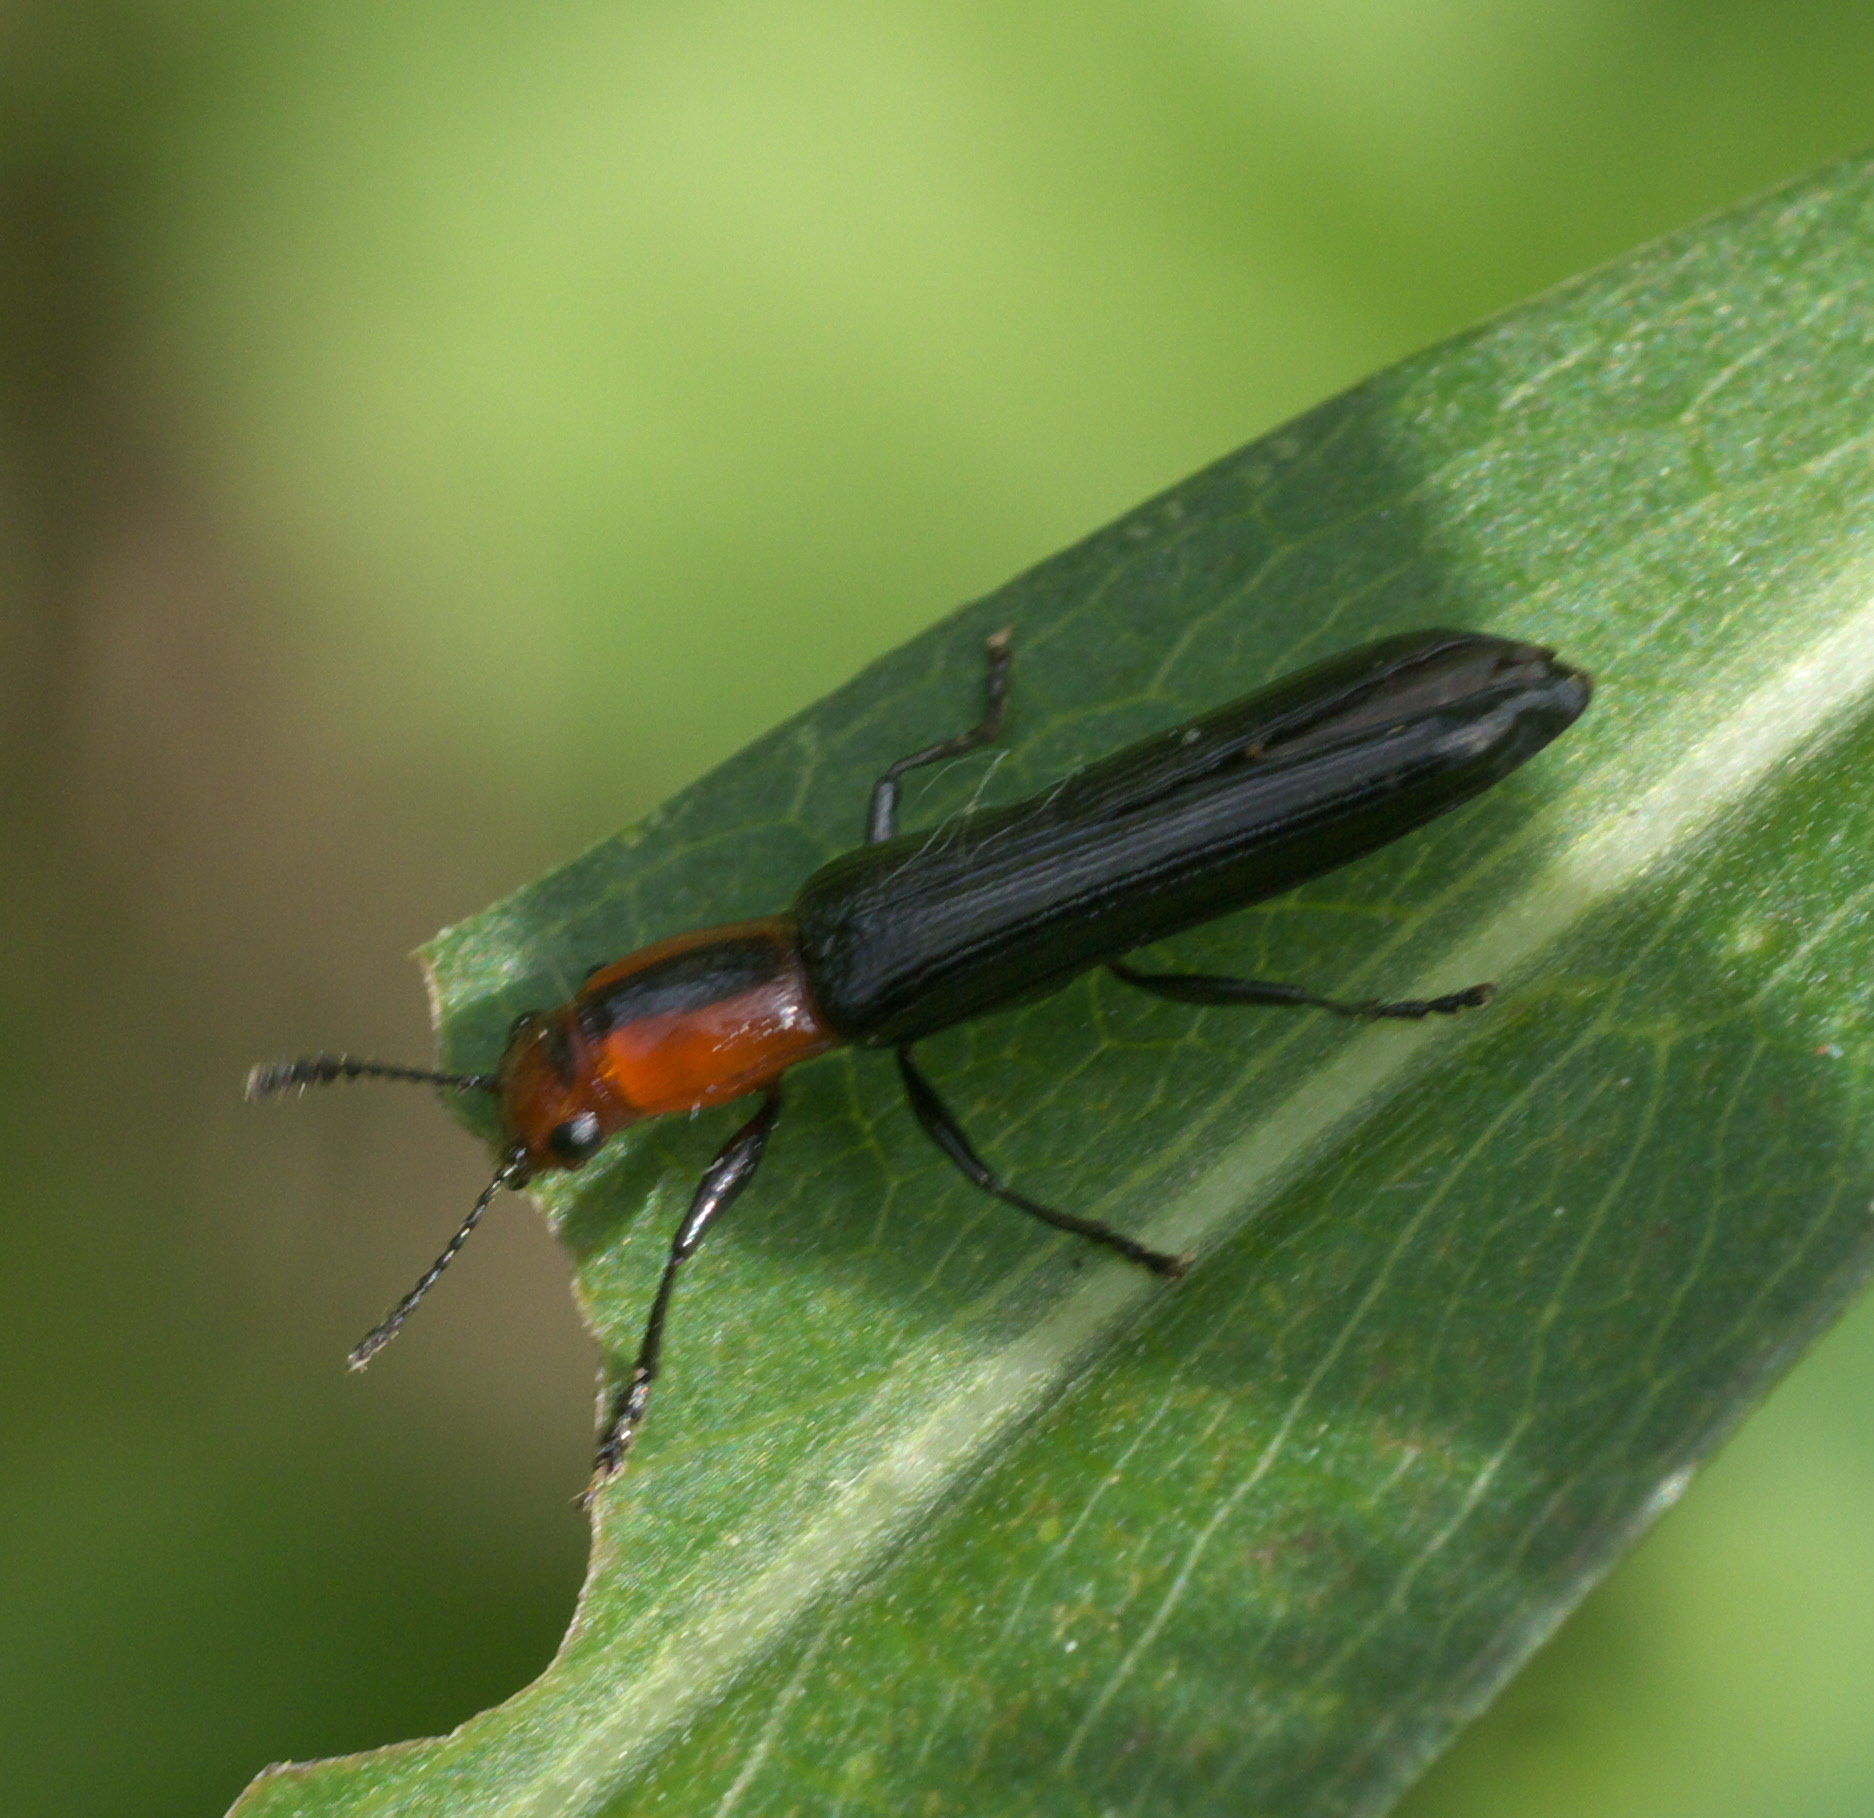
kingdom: Animalia
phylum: Arthropoda
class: Insecta
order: Coleoptera
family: Erotylidae
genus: Acropteroxys
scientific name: Acropteroxys gracilis
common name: Slender lizard beetle
